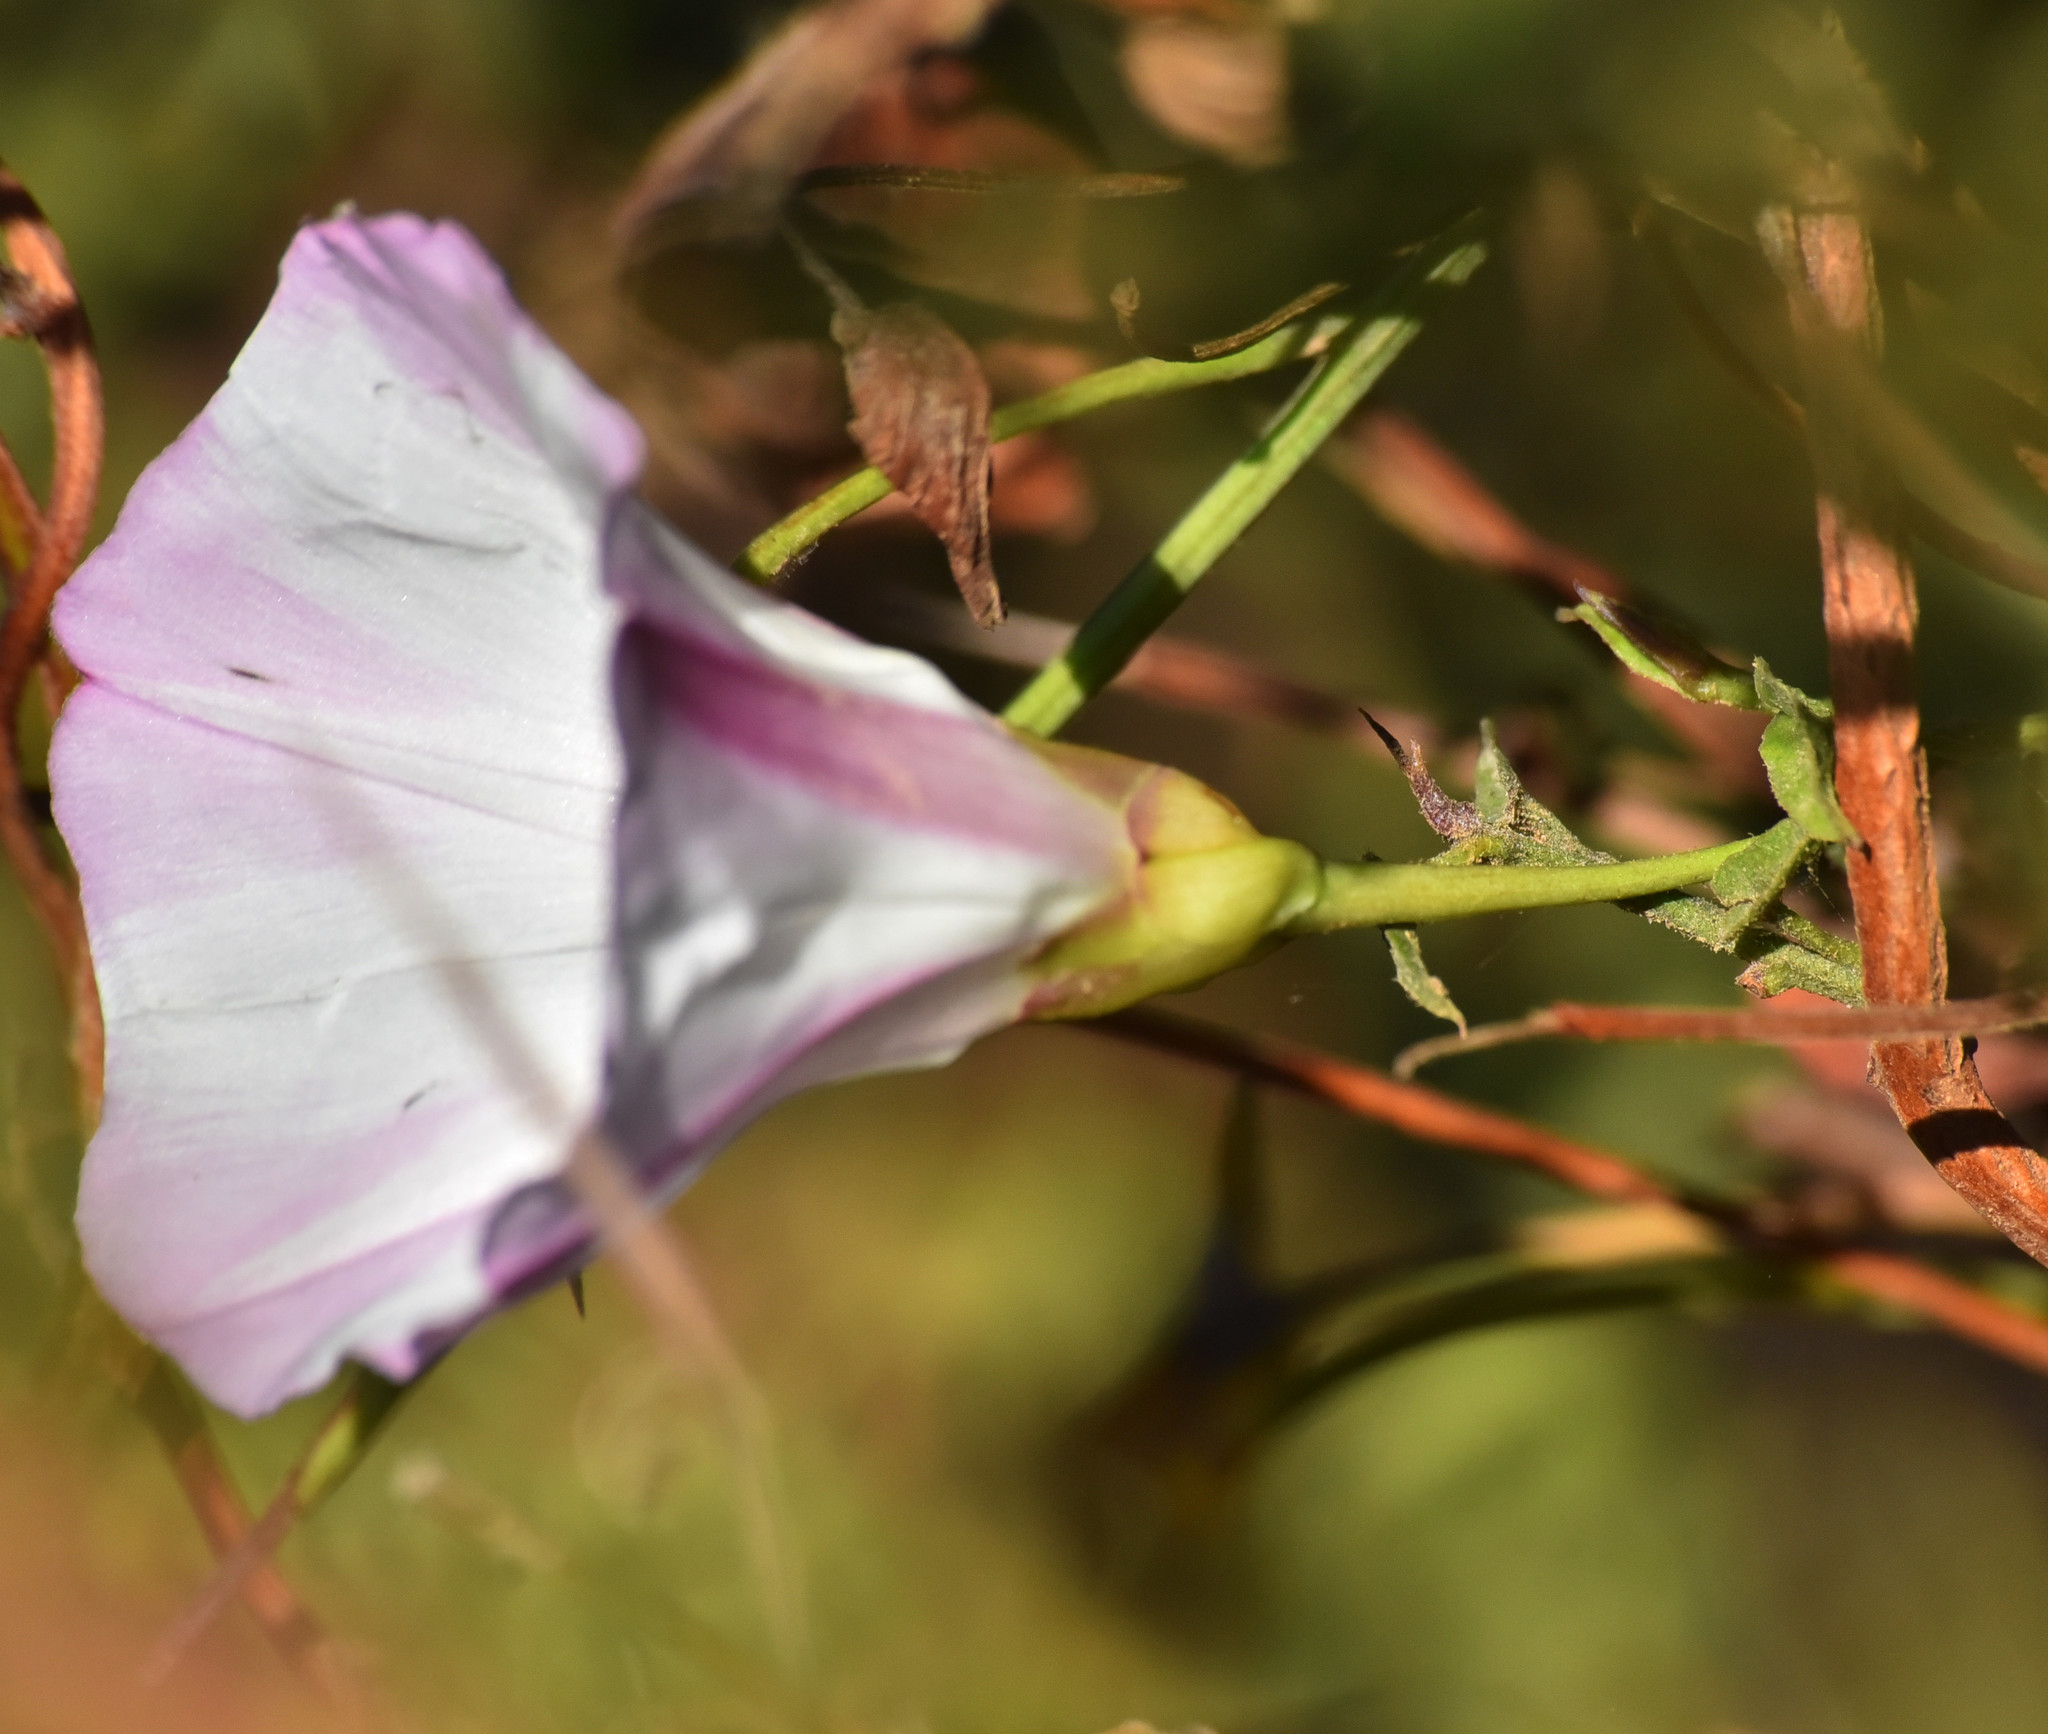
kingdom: Plantae
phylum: Tracheophyta
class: Magnoliopsida
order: Solanales
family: Convolvulaceae
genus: Calystegia
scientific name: Calystegia macrostegia
